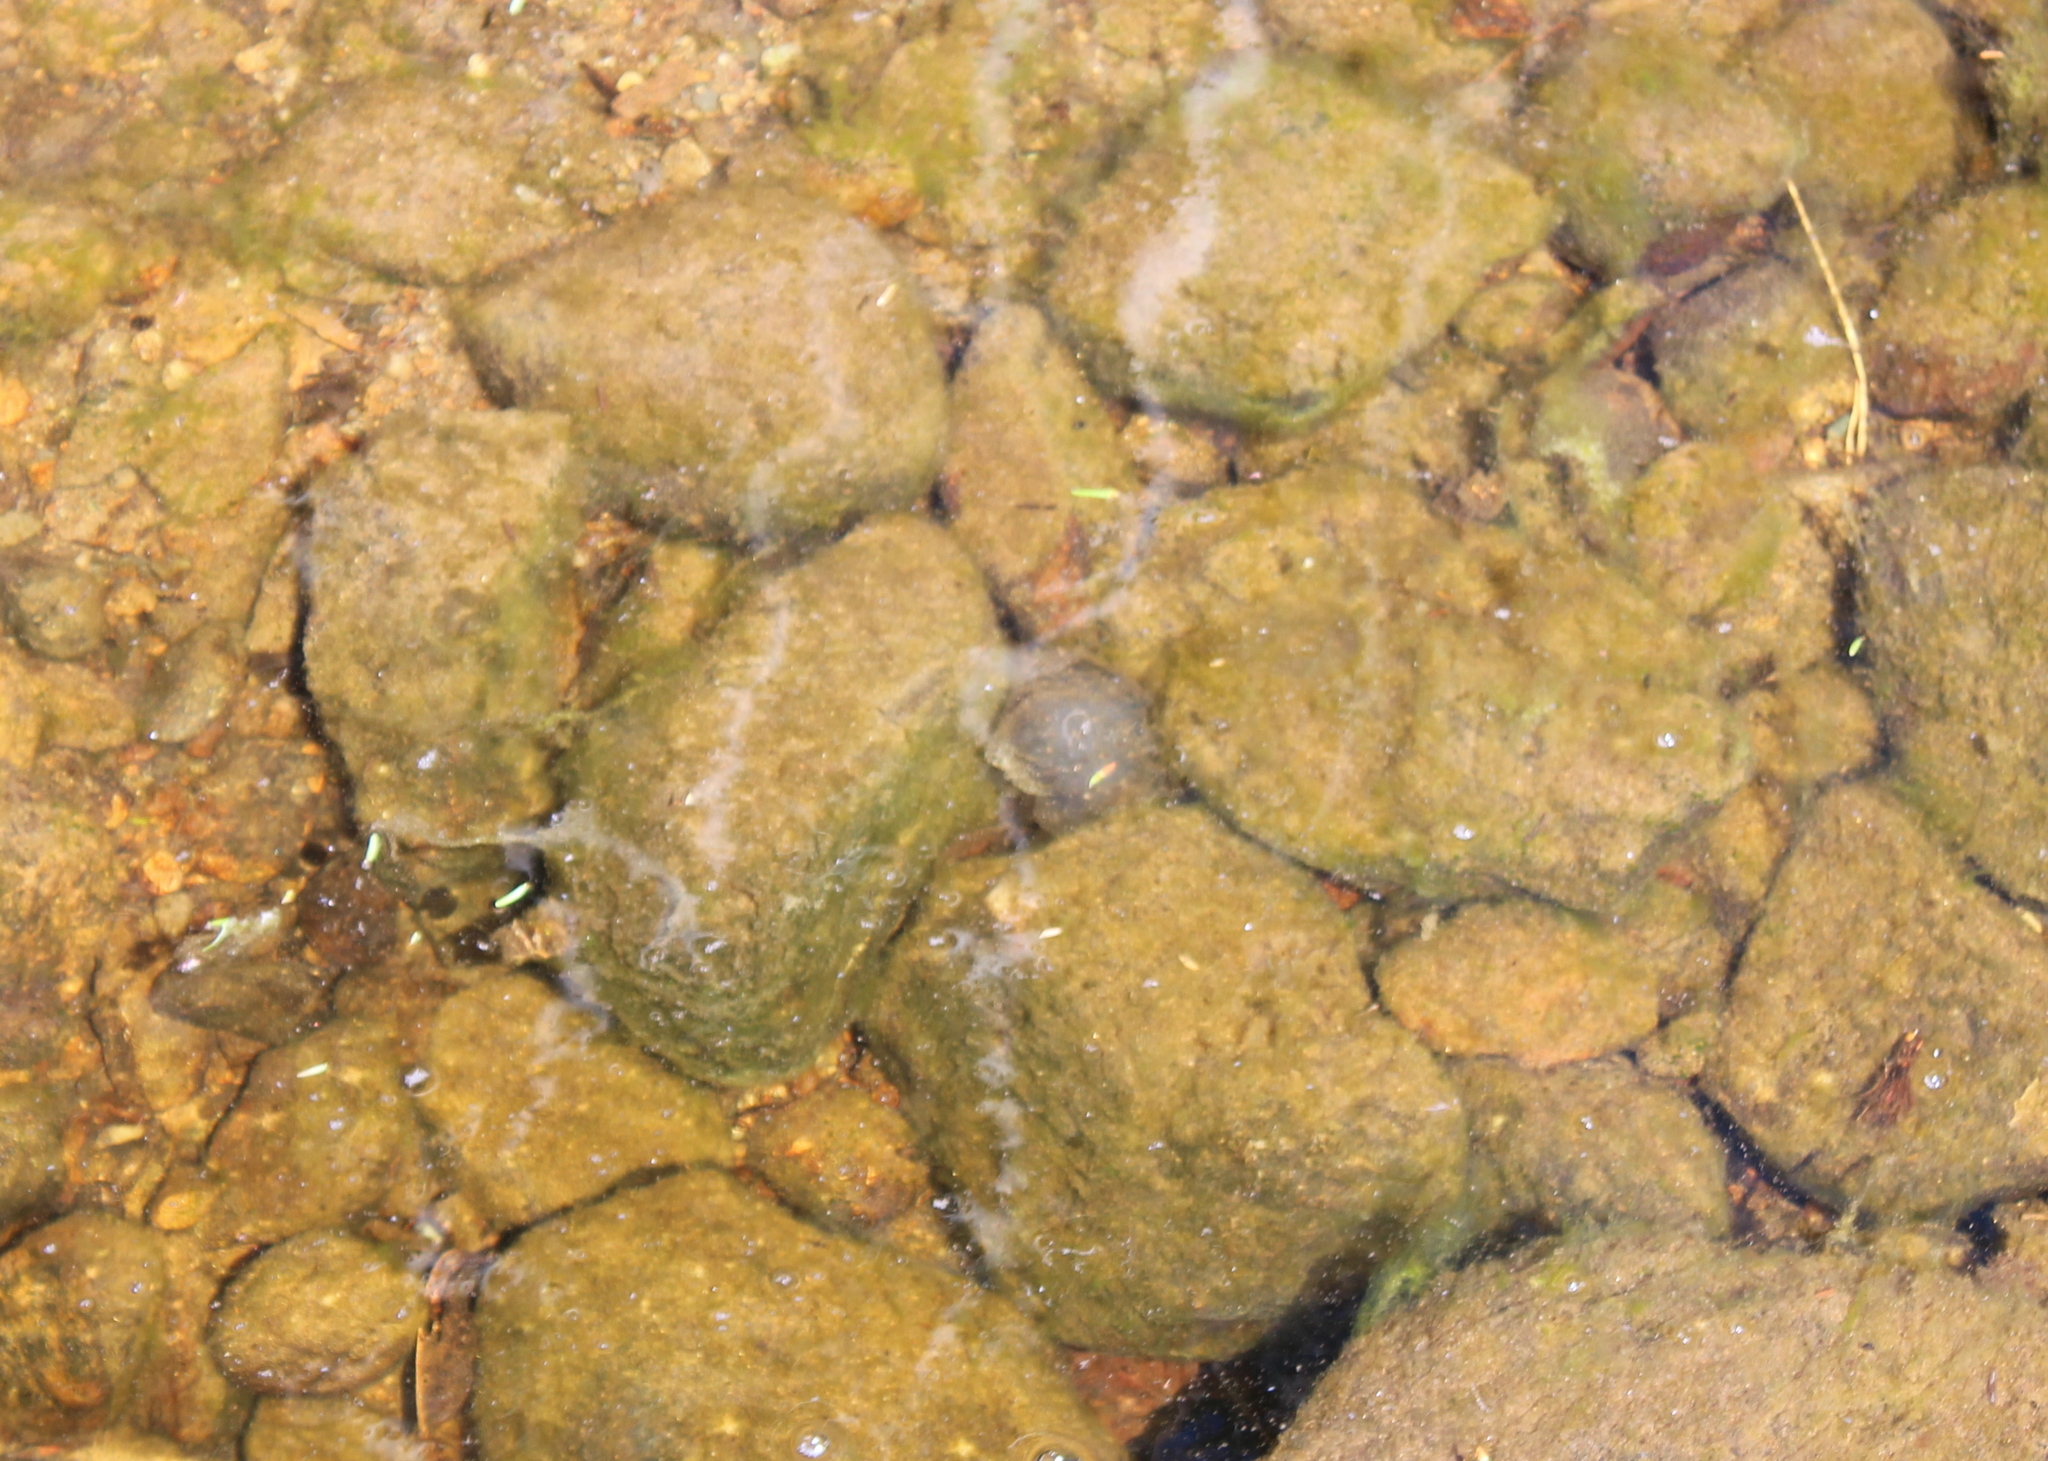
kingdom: Animalia
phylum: Chordata
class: Amphibia
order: Caudata
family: Ambystomatidae
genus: Ambystoma
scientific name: Ambystoma maculatum
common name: Spotted salamander
